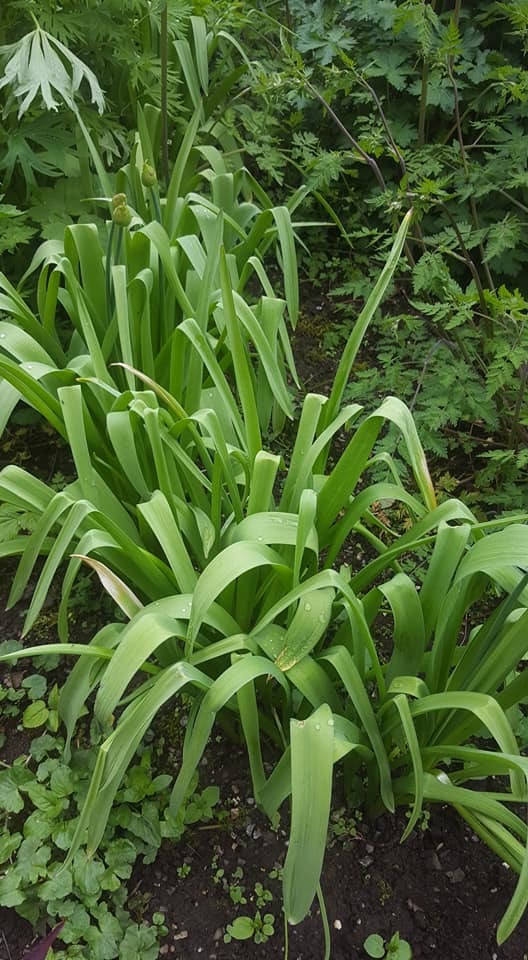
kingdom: Plantae
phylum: Tracheophyta
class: Liliopsida
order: Asparagales
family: Amaryllidaceae
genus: Allium
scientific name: Allium
